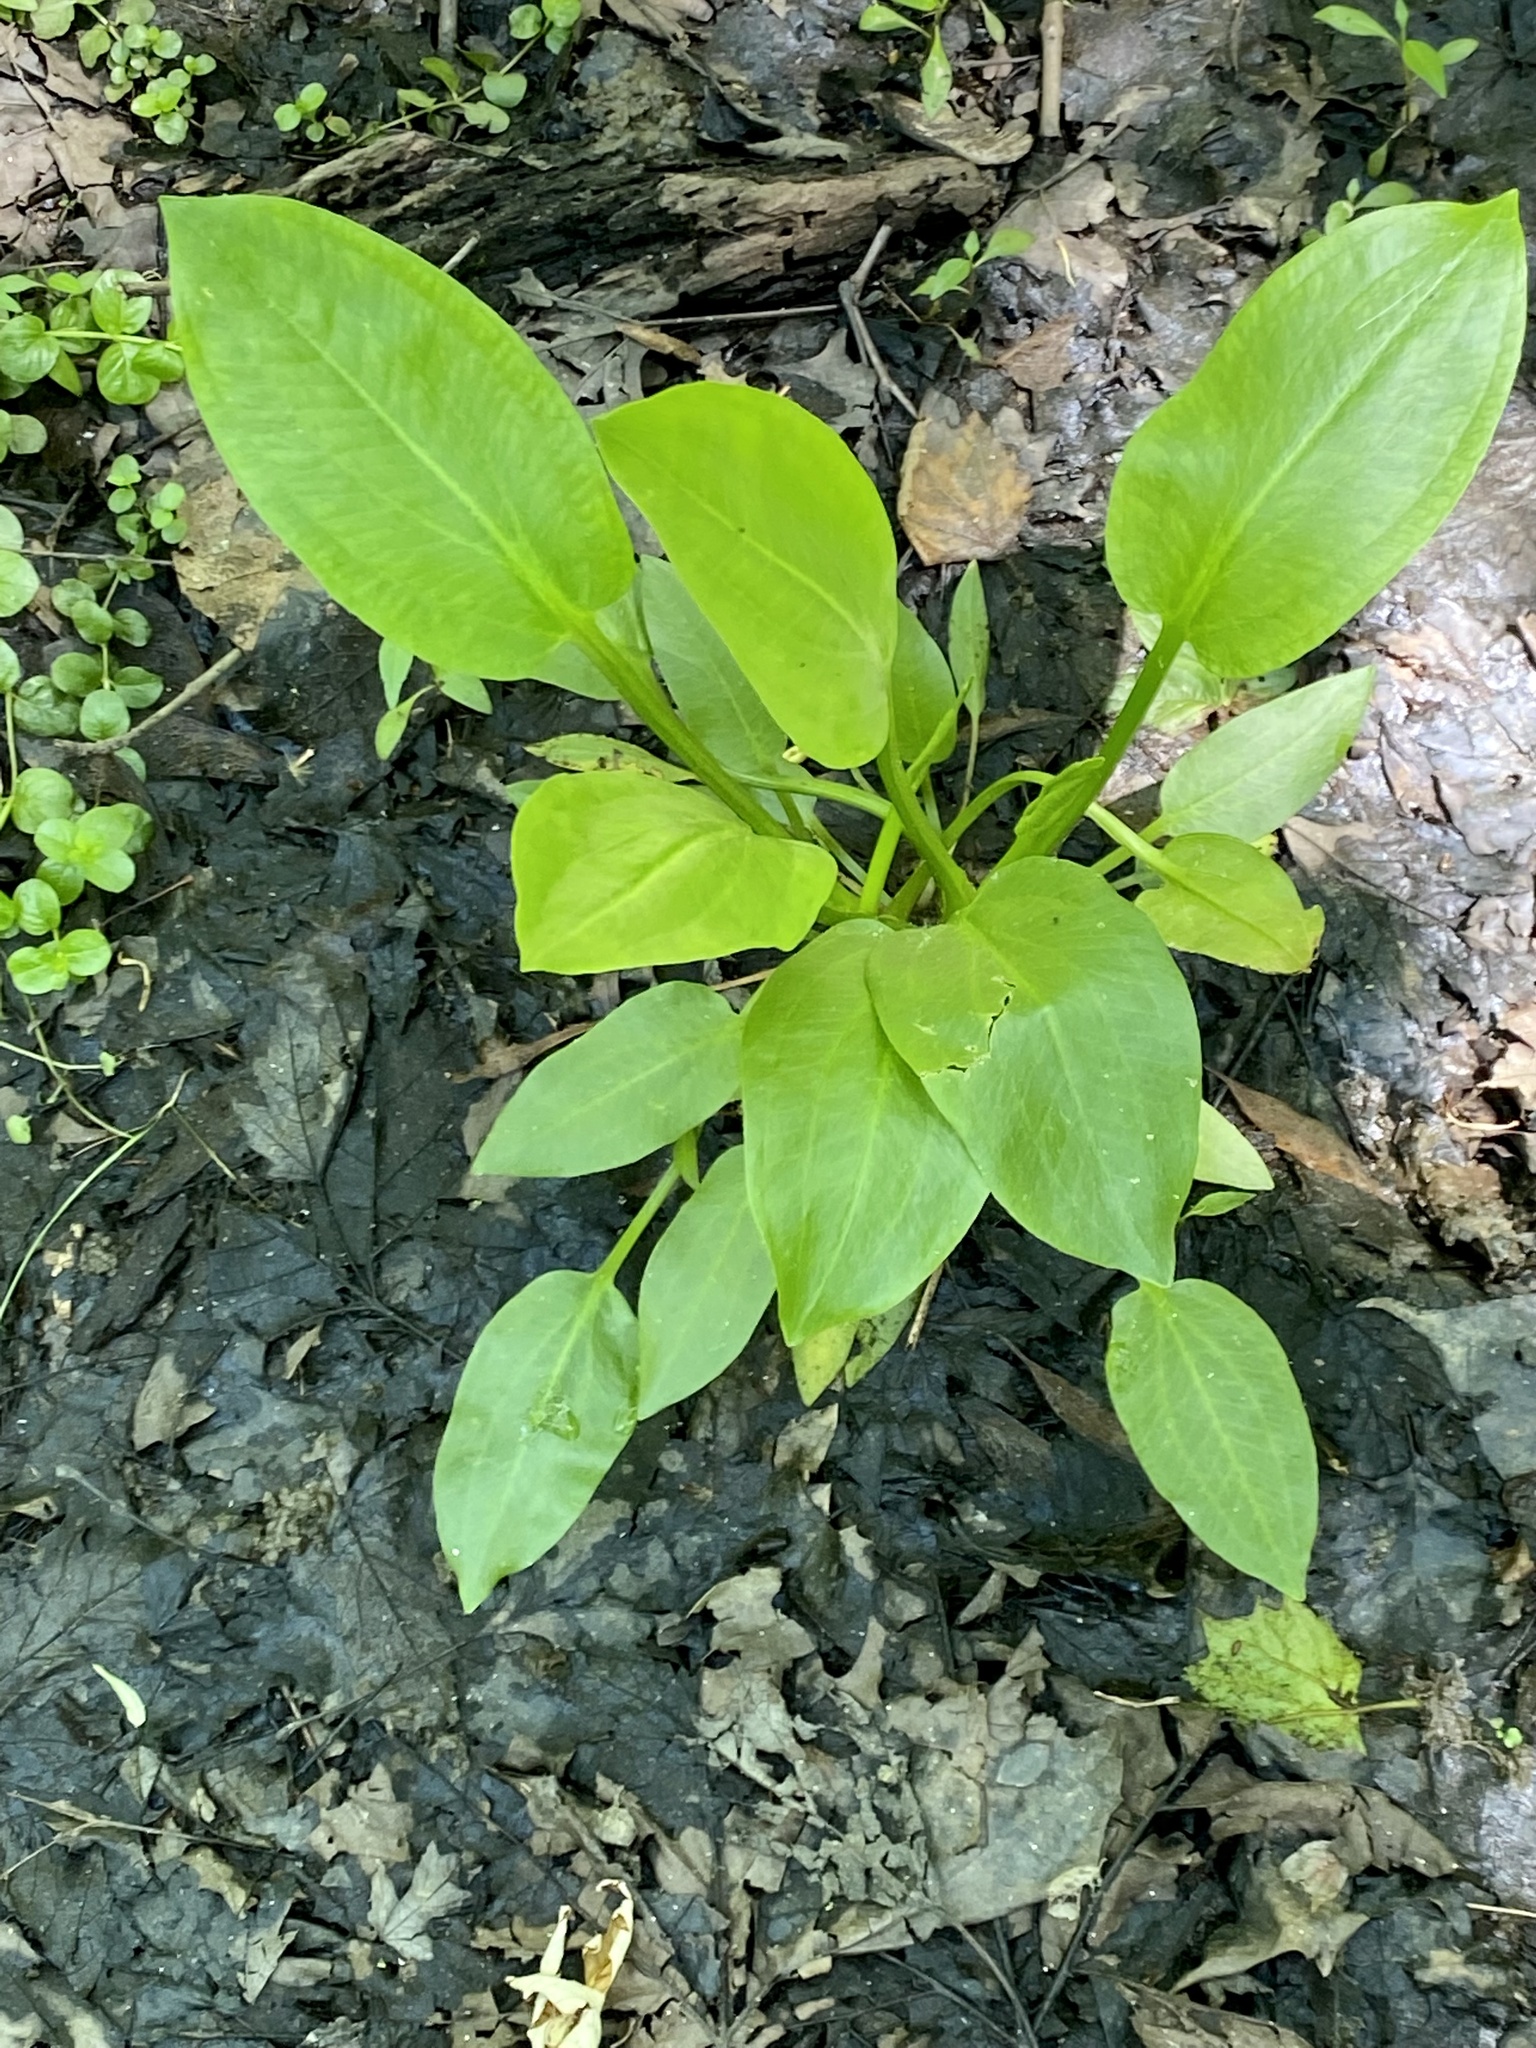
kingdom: Plantae
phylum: Tracheophyta
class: Liliopsida
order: Alismatales
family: Alismataceae
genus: Alisma
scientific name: Alisma subcordatum
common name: Southern water-plantain
